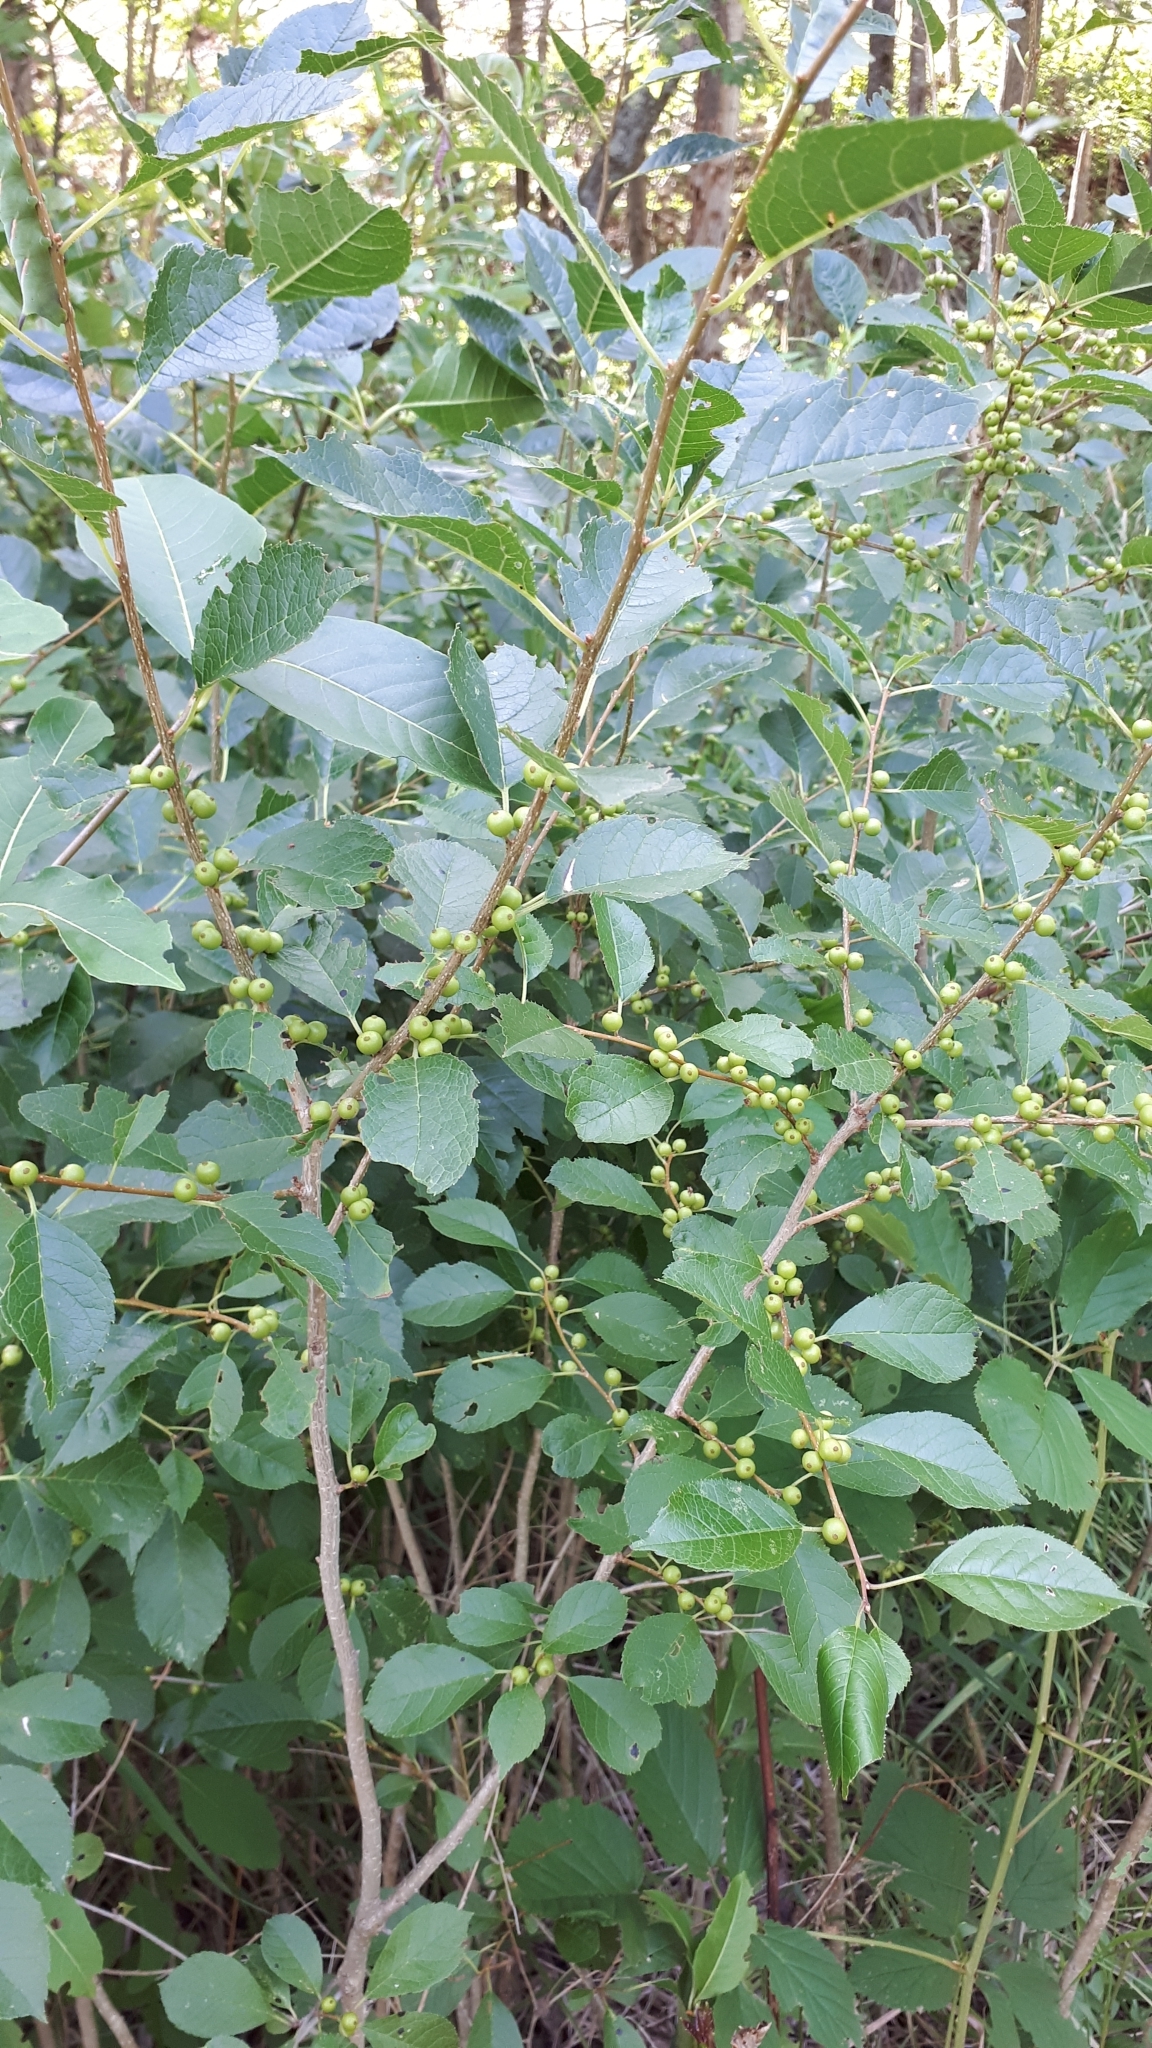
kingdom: Plantae
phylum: Tracheophyta
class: Magnoliopsida
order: Aquifoliales
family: Aquifoliaceae
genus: Ilex
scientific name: Ilex verticillata
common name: Virginia winterberry
